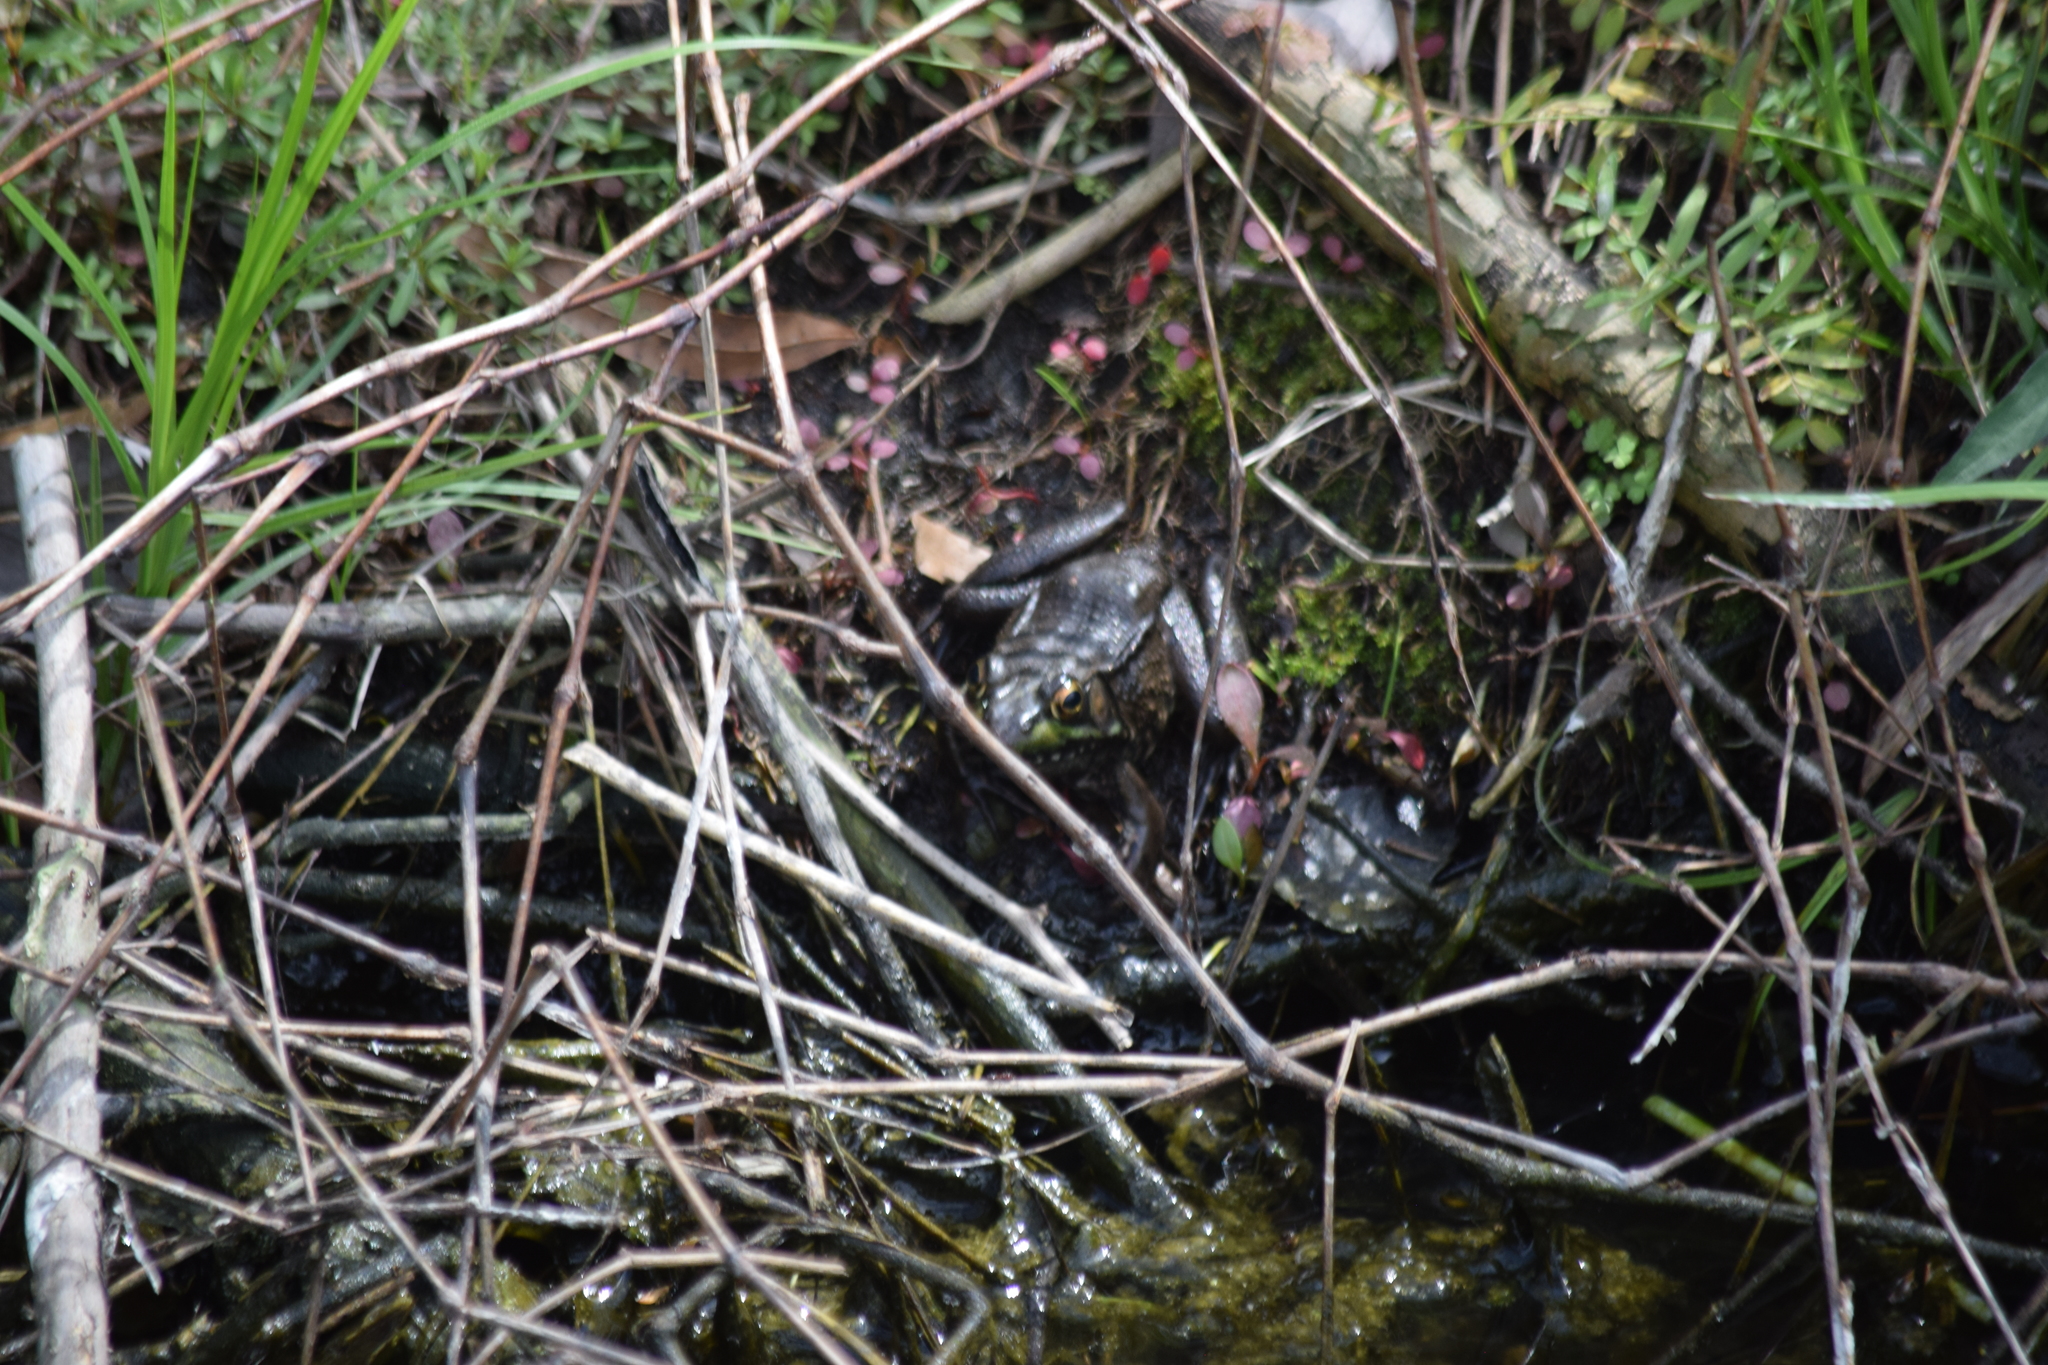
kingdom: Animalia
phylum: Chordata
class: Amphibia
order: Anura
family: Ranidae
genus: Lithobates
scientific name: Lithobates clamitans
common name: Green frog
